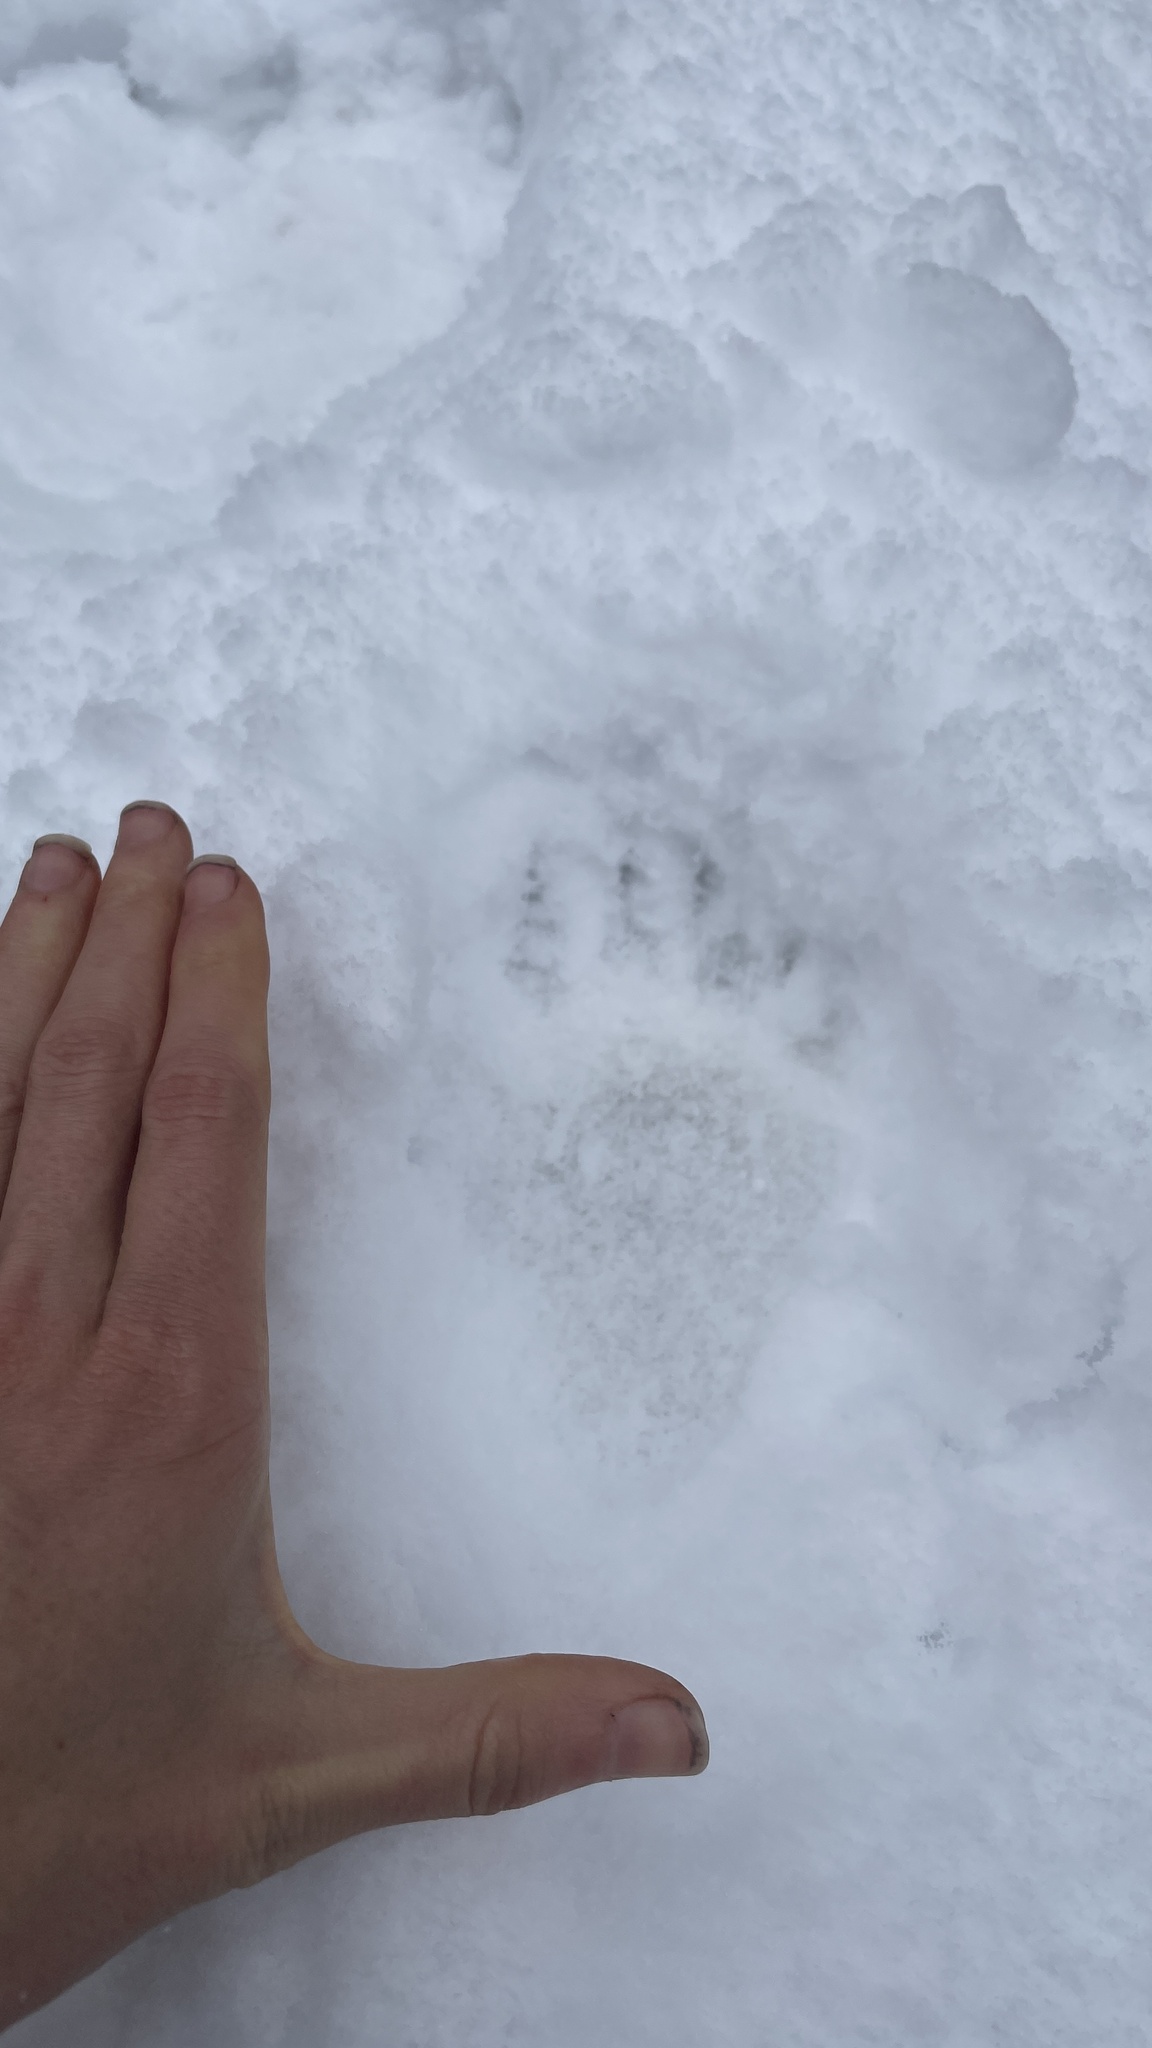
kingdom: Animalia
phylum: Chordata
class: Mammalia
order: Carnivora
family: Ursidae
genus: Ursus
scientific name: Ursus americanus
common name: American black bear
